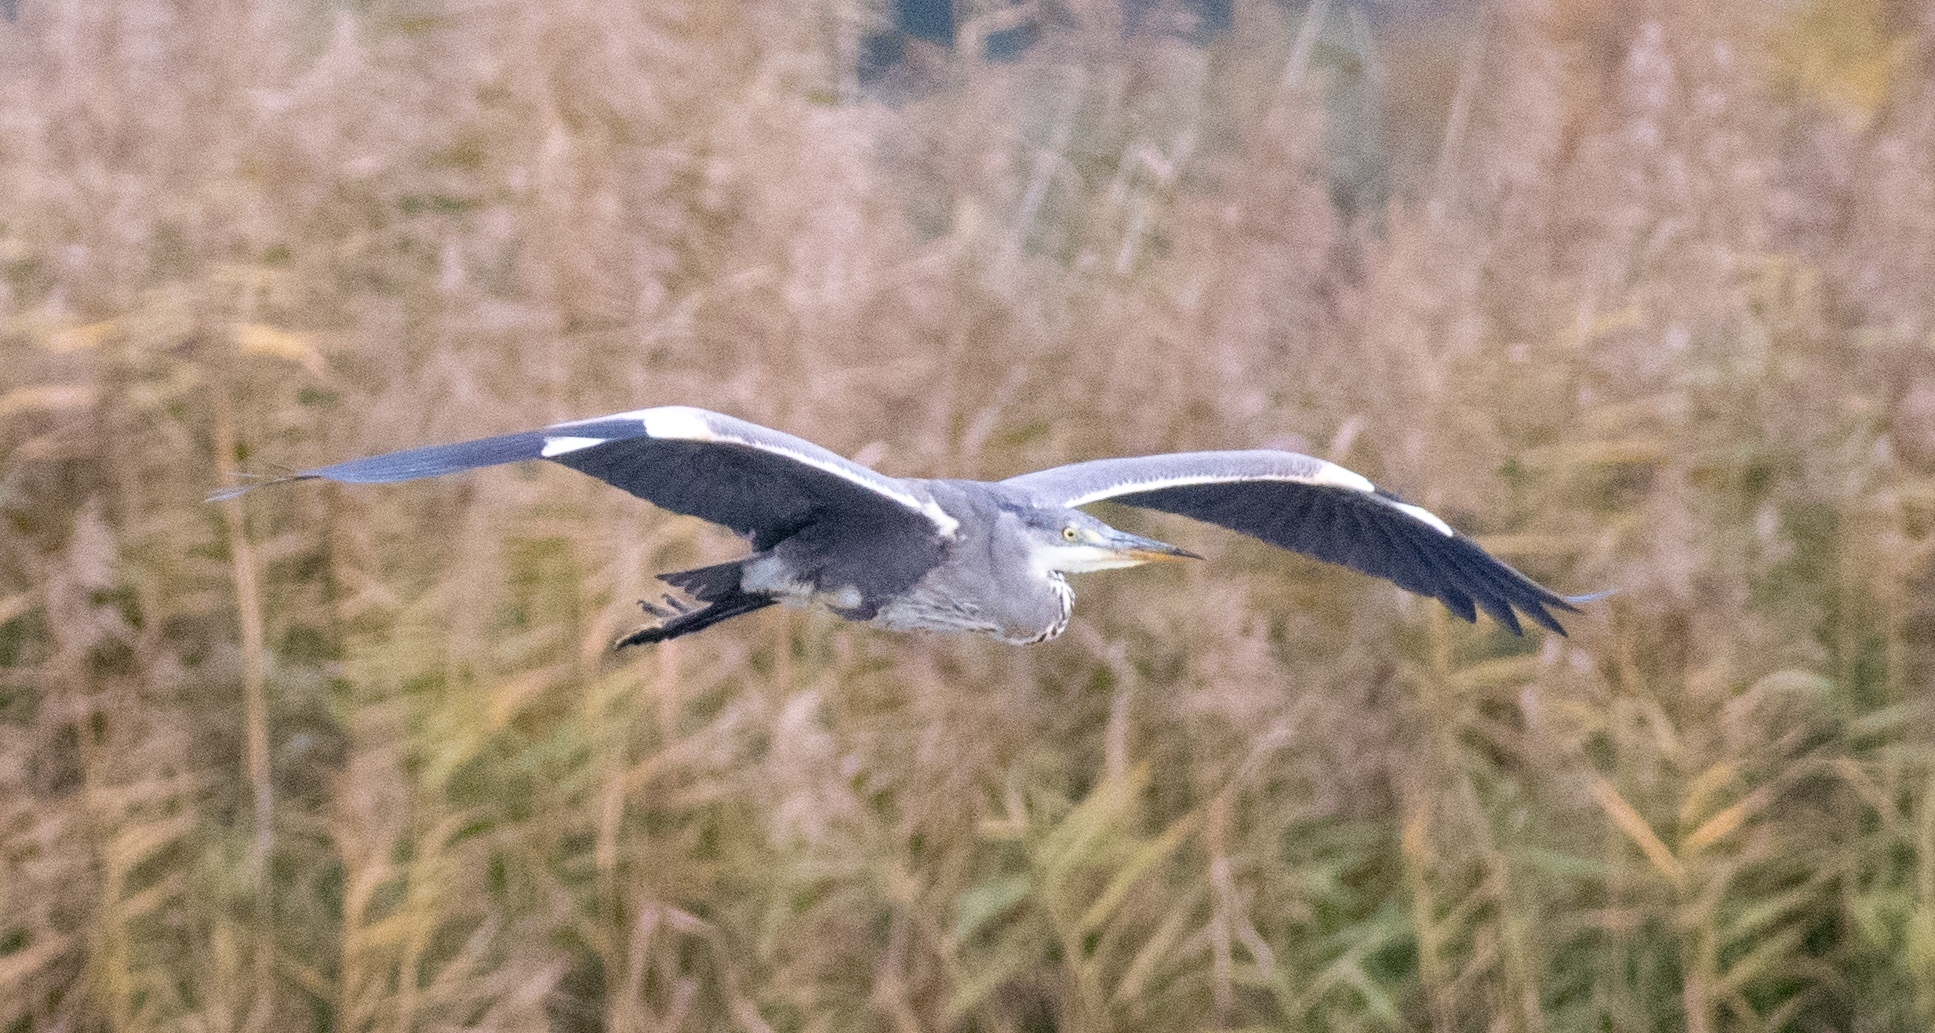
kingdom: Animalia
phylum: Chordata
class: Aves
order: Pelecaniformes
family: Ardeidae
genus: Ardea
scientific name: Ardea cinerea
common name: Grey heron
